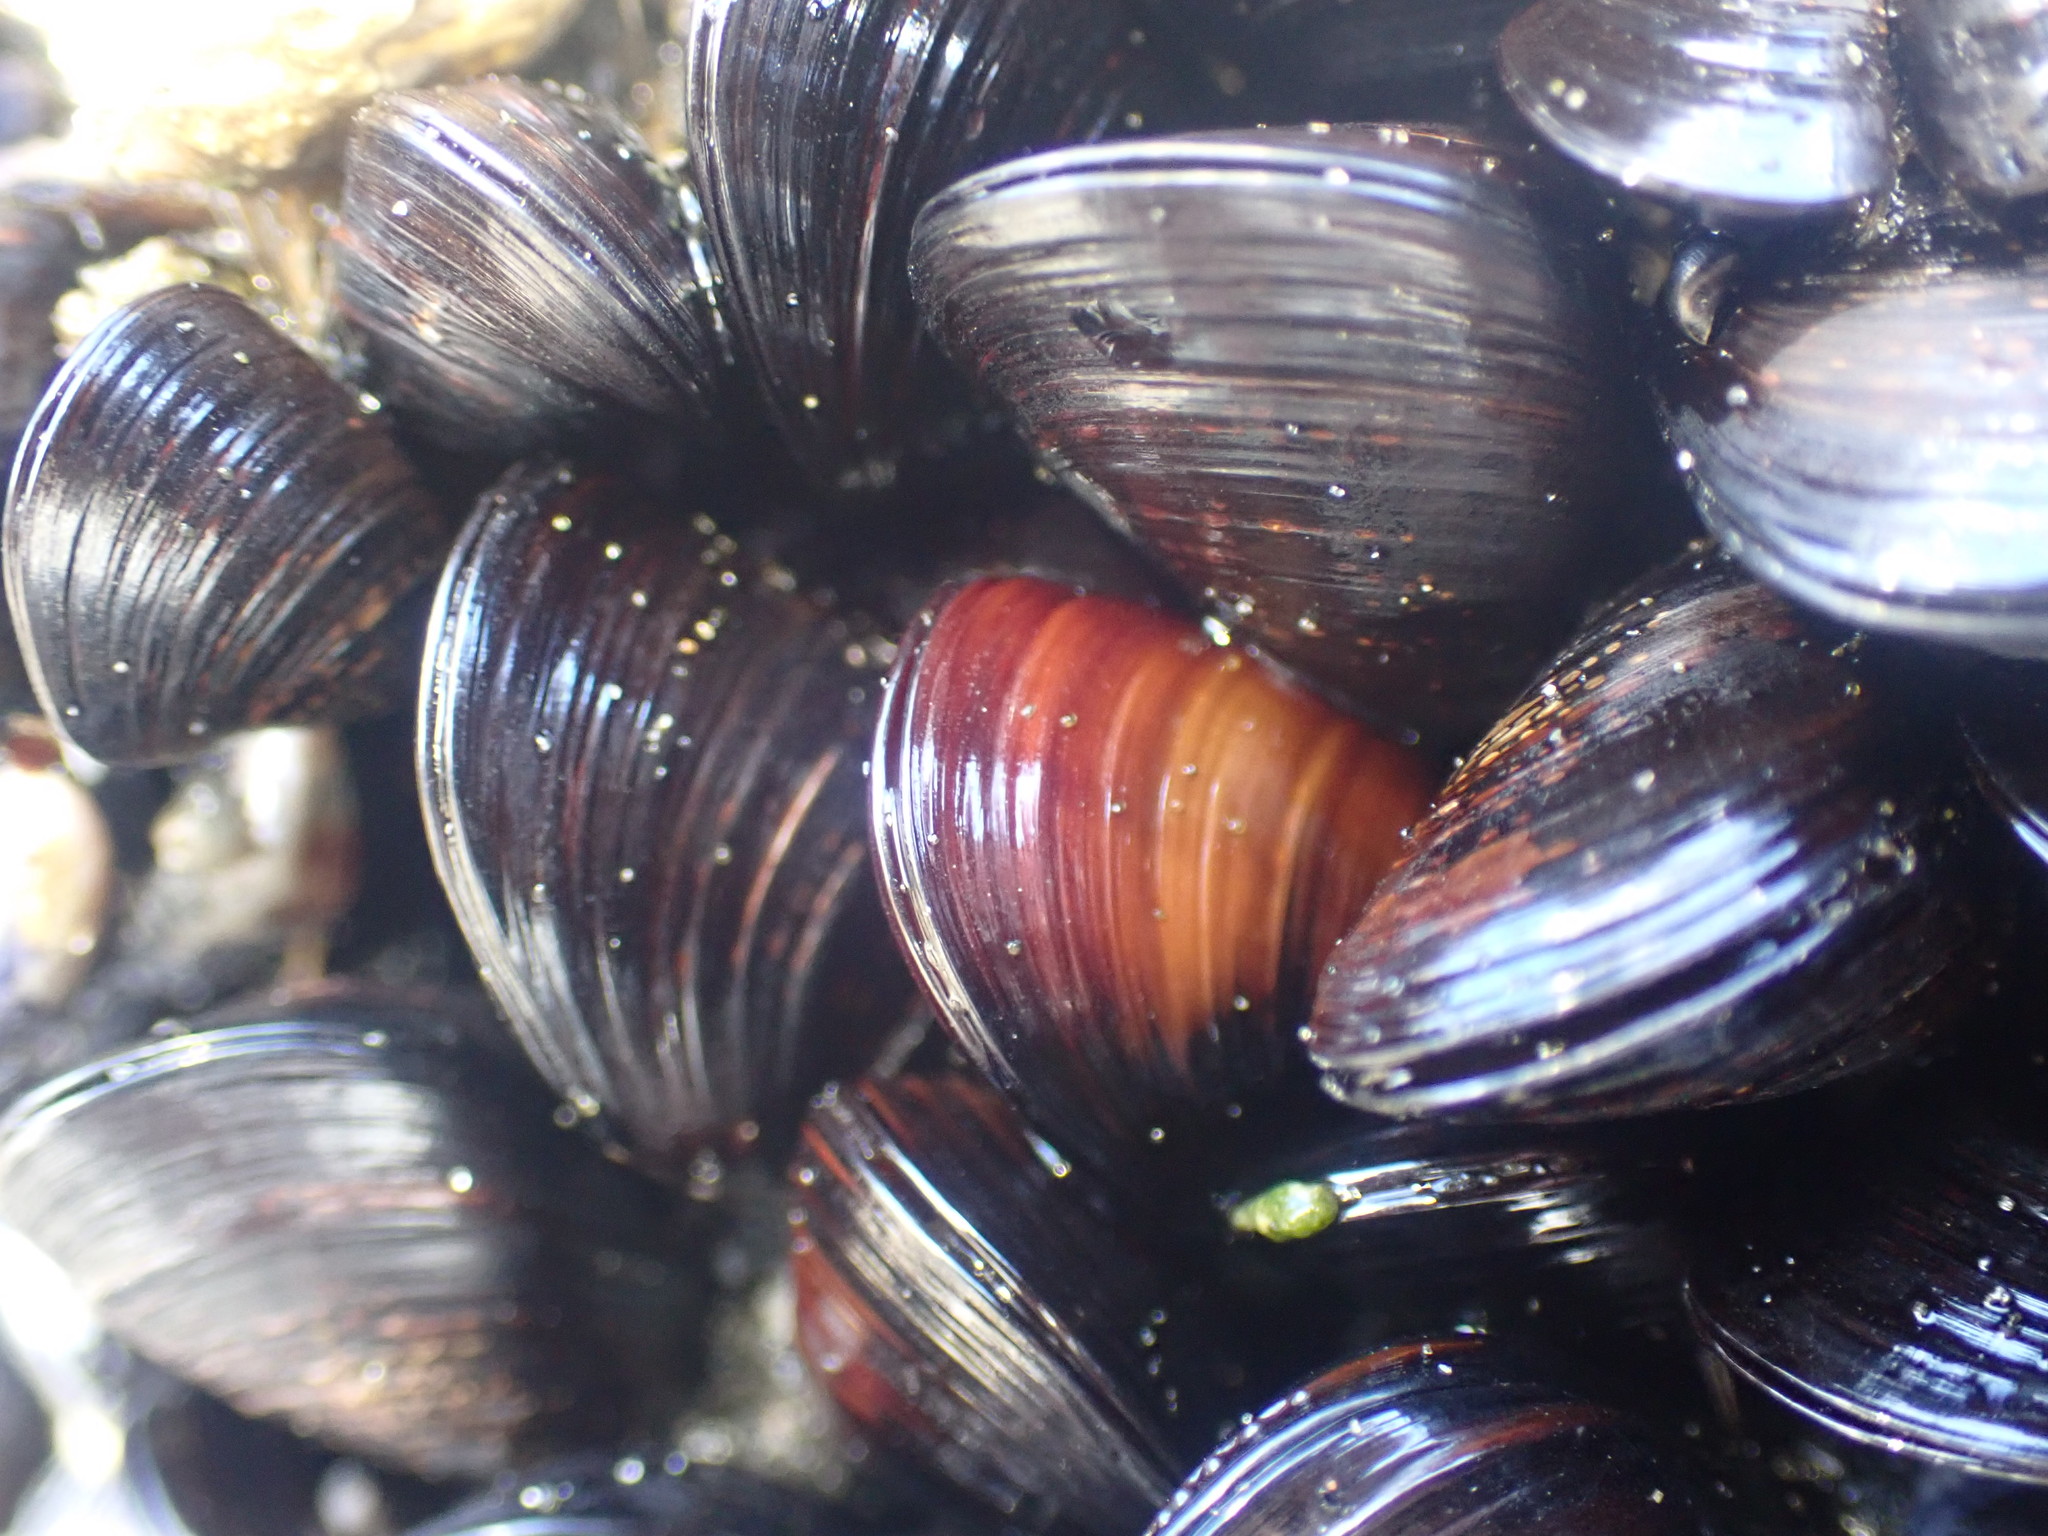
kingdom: Animalia
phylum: Mollusca
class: Bivalvia
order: Mytilida
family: Mytilidae
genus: Xenostrobus
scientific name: Xenostrobus neozelanicus
